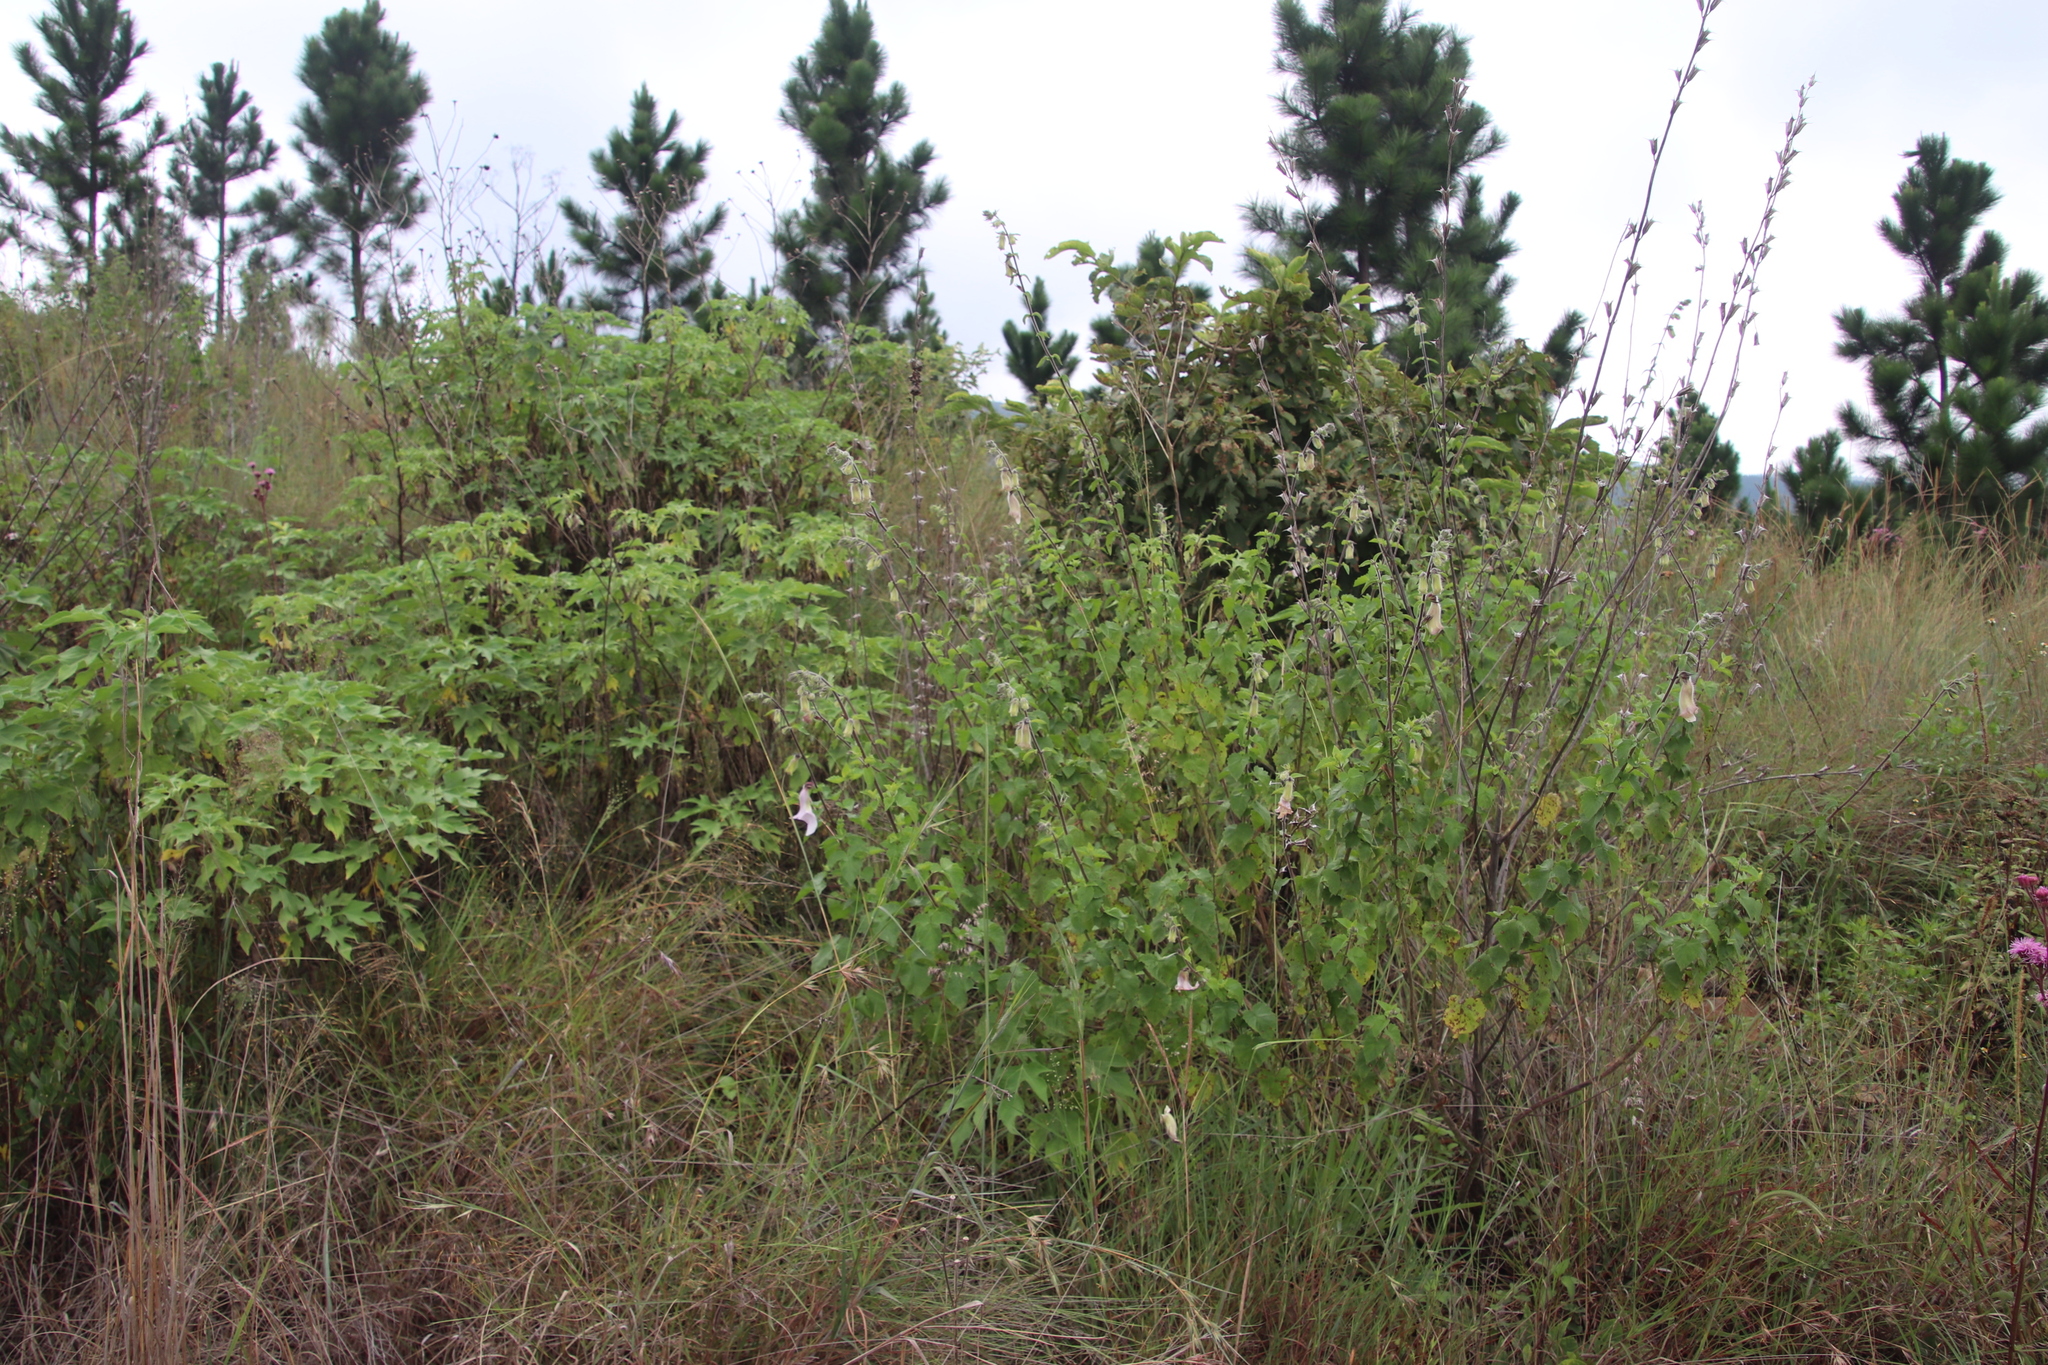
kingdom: Plantae
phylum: Tracheophyta
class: Magnoliopsida
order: Lamiales
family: Pedaliaceae
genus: Sesamum
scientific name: Sesamum trilobum
